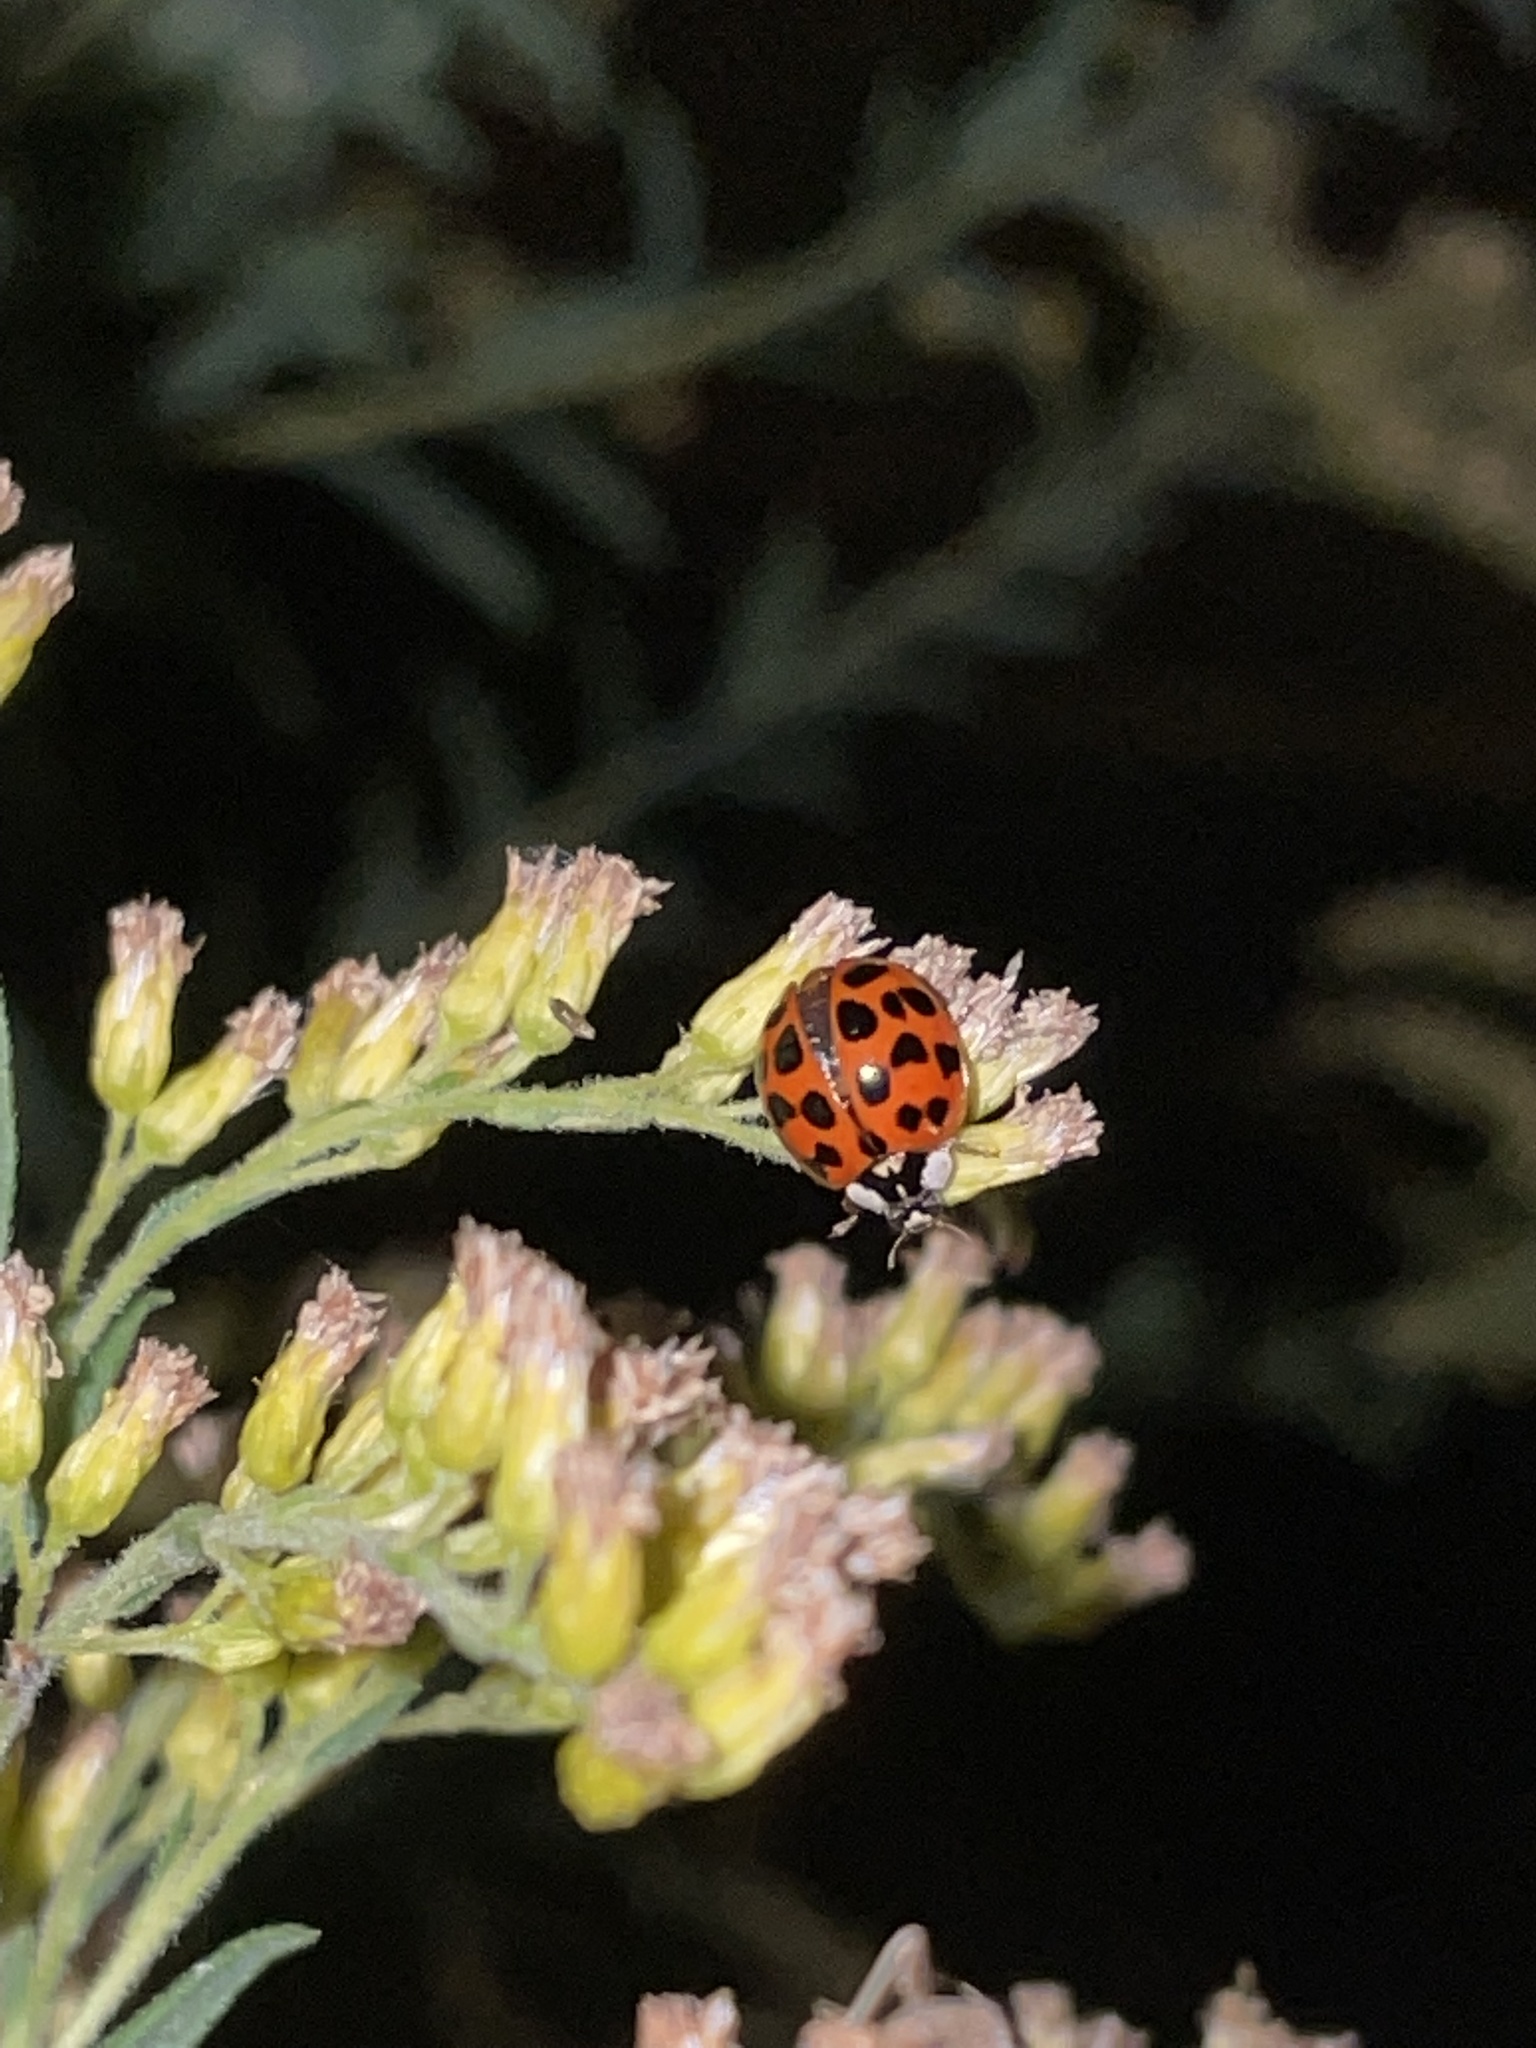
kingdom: Animalia
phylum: Arthropoda
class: Insecta
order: Coleoptera
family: Coccinellidae
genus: Harmonia
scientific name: Harmonia axyridis
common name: Harlequin ladybird
